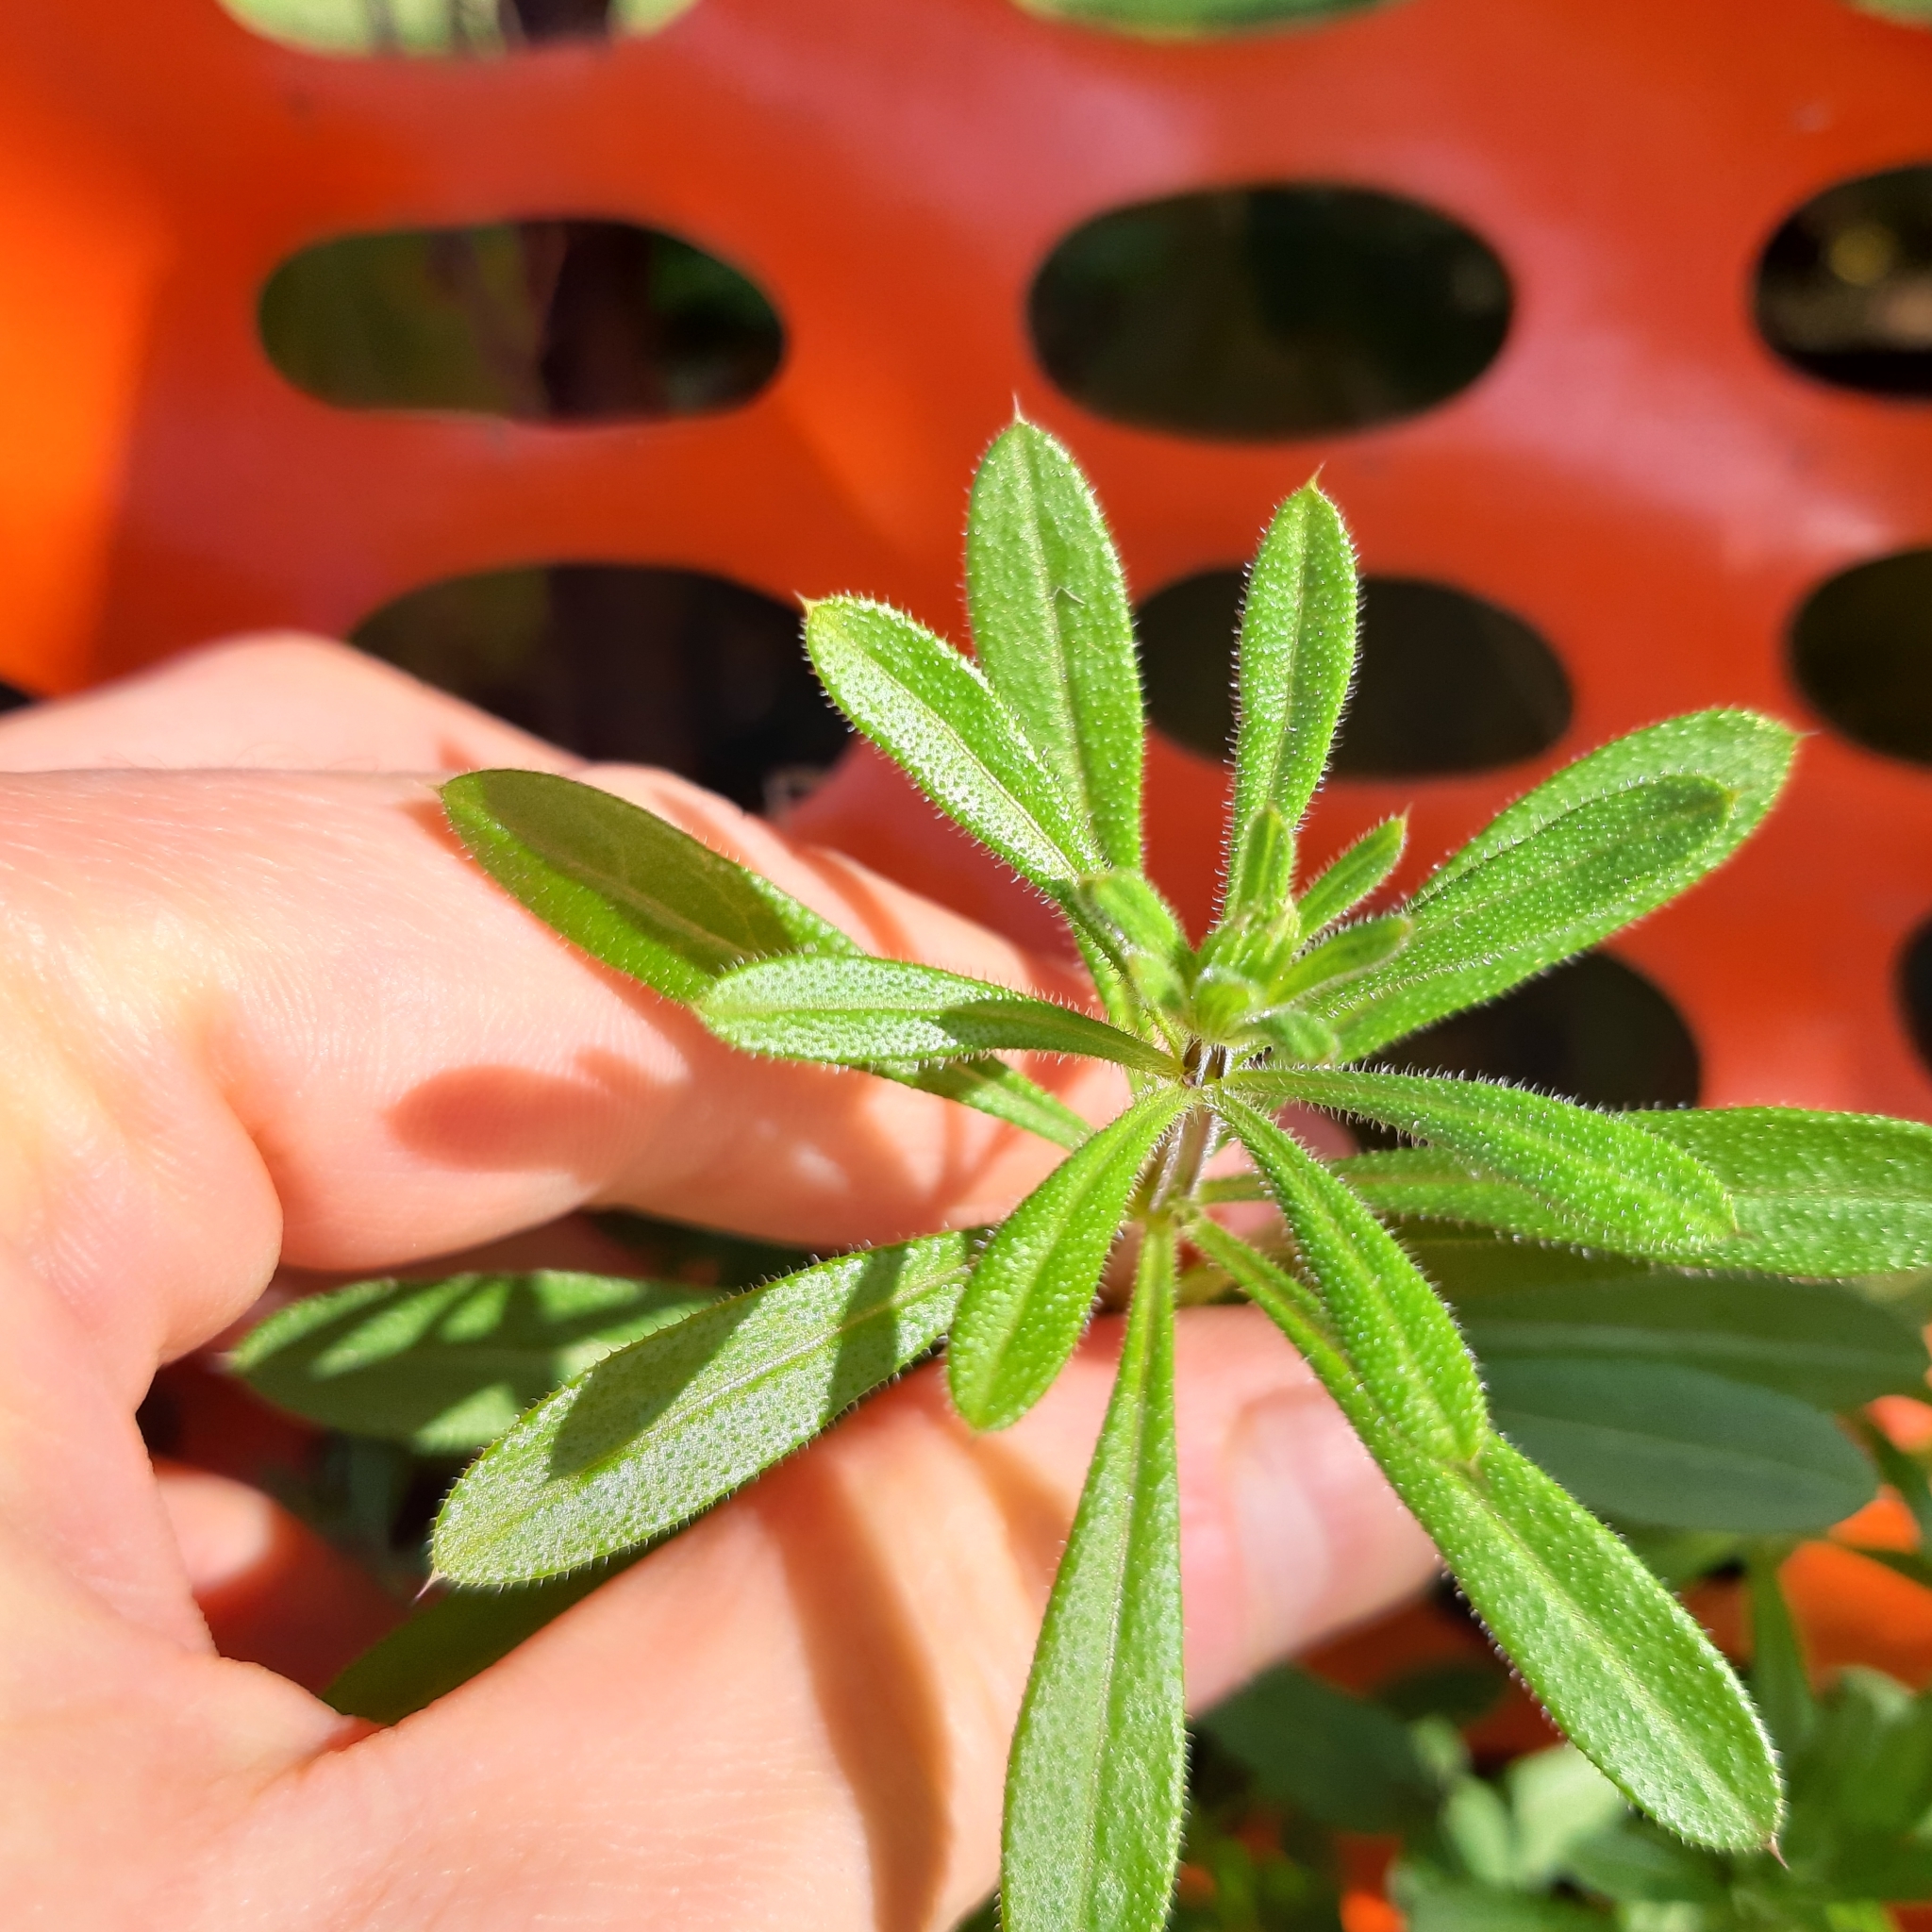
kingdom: Plantae
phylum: Tracheophyta
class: Magnoliopsida
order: Gentianales
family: Rubiaceae
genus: Galium
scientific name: Galium aparine
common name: Cleavers
